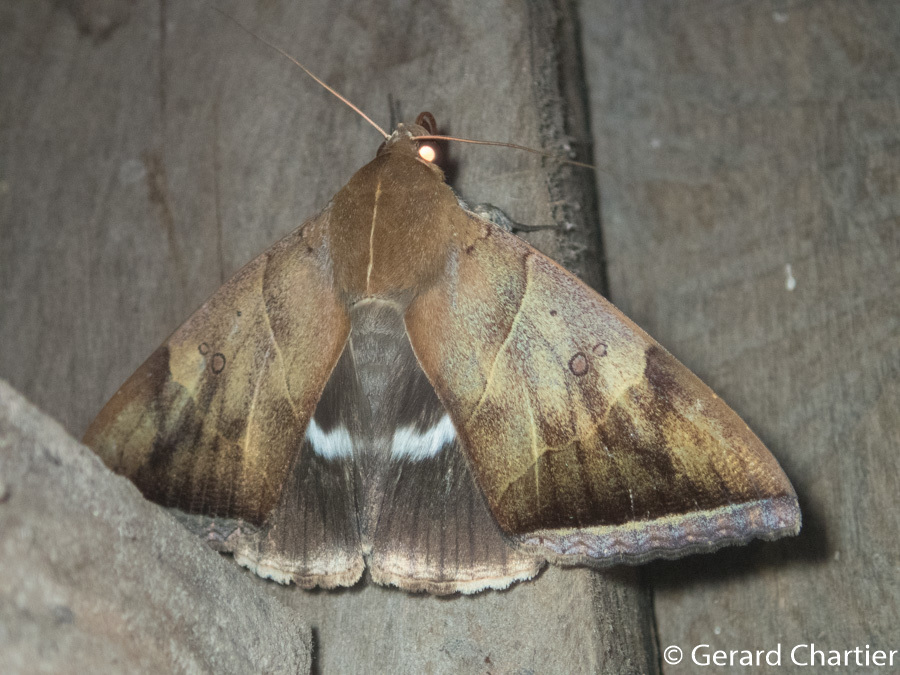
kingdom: Animalia
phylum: Arthropoda
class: Insecta
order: Lepidoptera
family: Erebidae
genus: Artena
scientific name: Artena dotata
